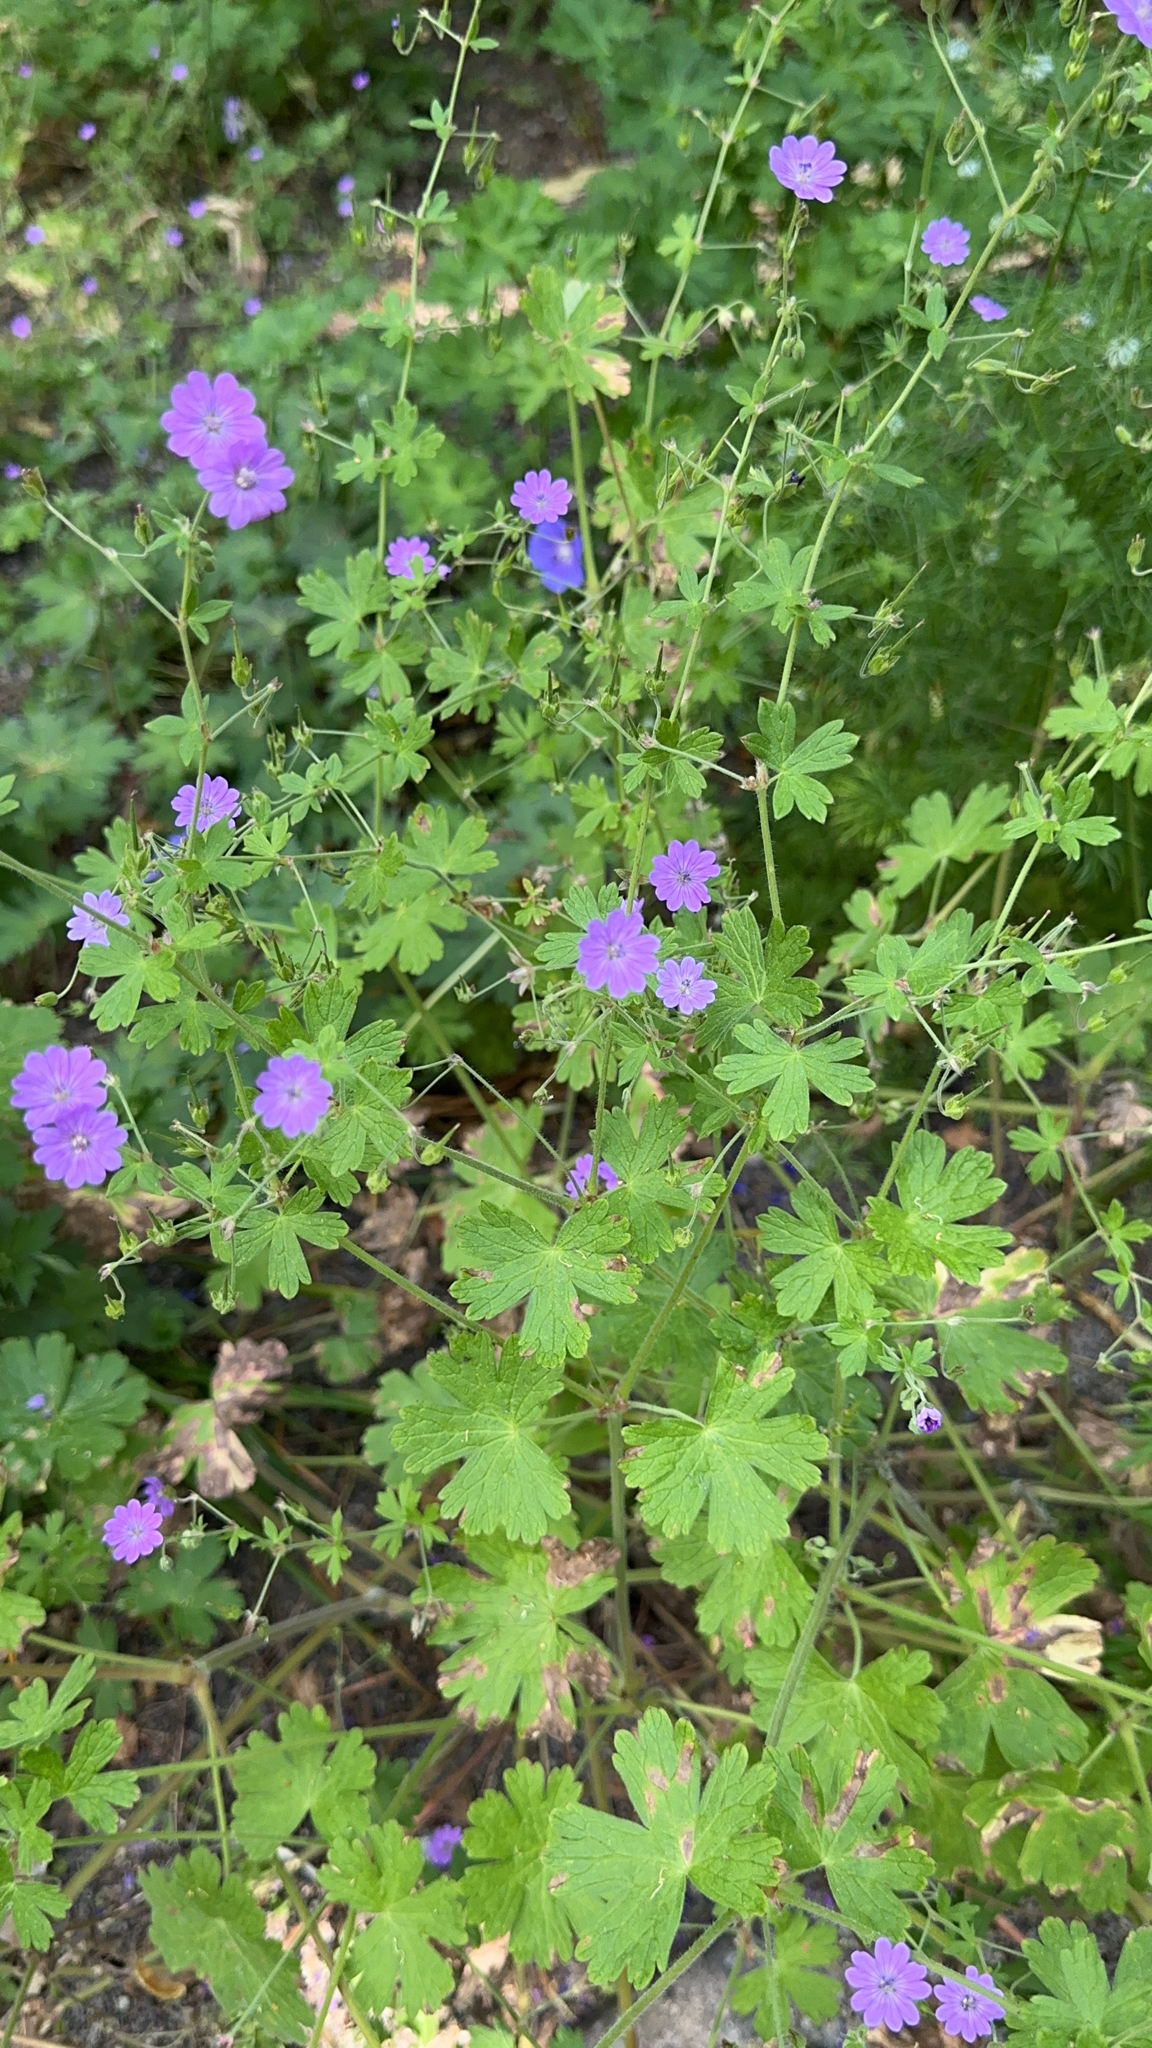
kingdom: Plantae
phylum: Tracheophyta
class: Magnoliopsida
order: Geraniales
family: Geraniaceae
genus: Geranium
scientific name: Geranium pyrenaicum
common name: Hedgerow crane's-bill
